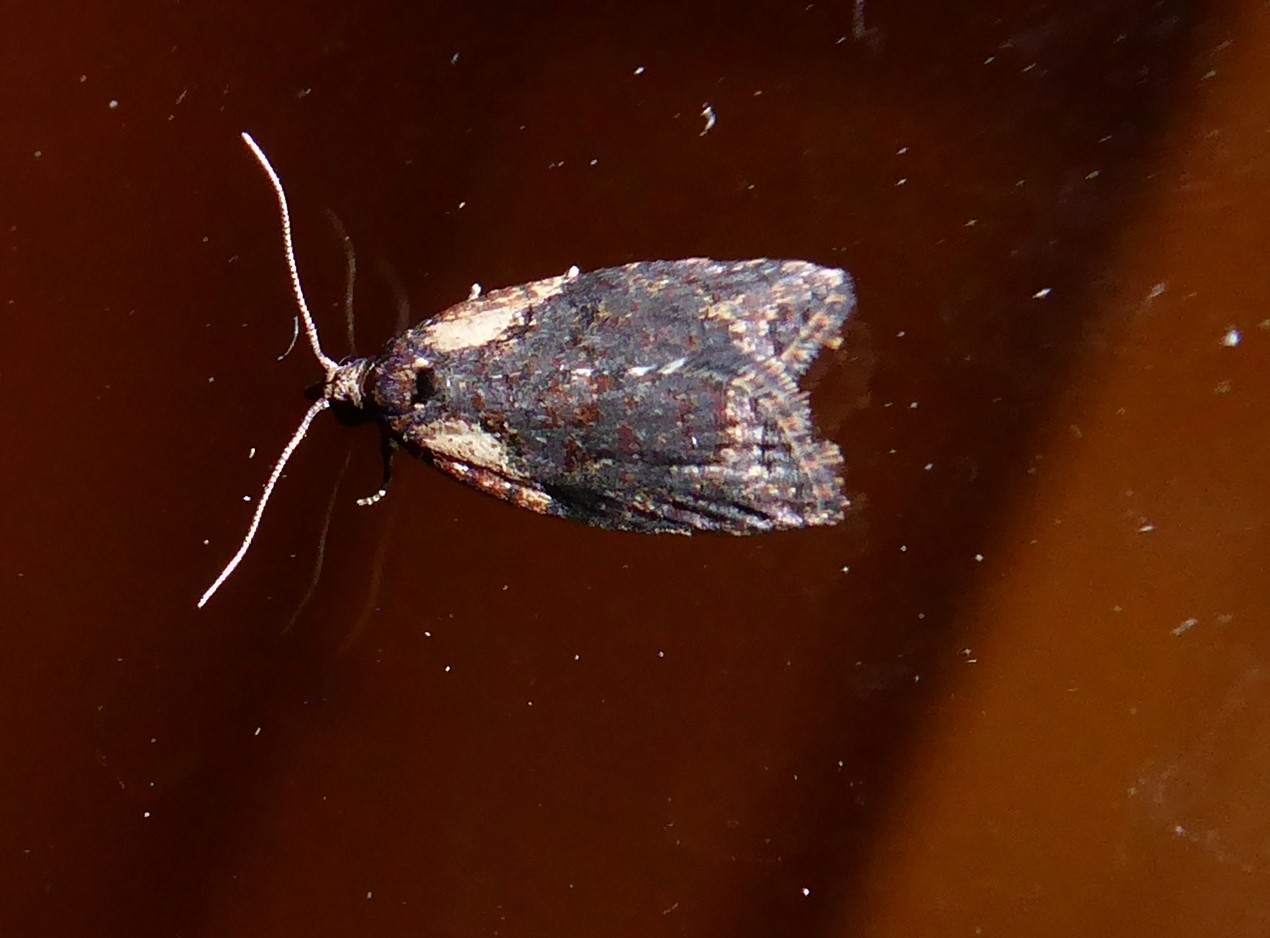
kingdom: Animalia
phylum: Arthropoda
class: Insecta
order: Lepidoptera
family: Tortricidae
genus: Capua
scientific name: Capua intractana
